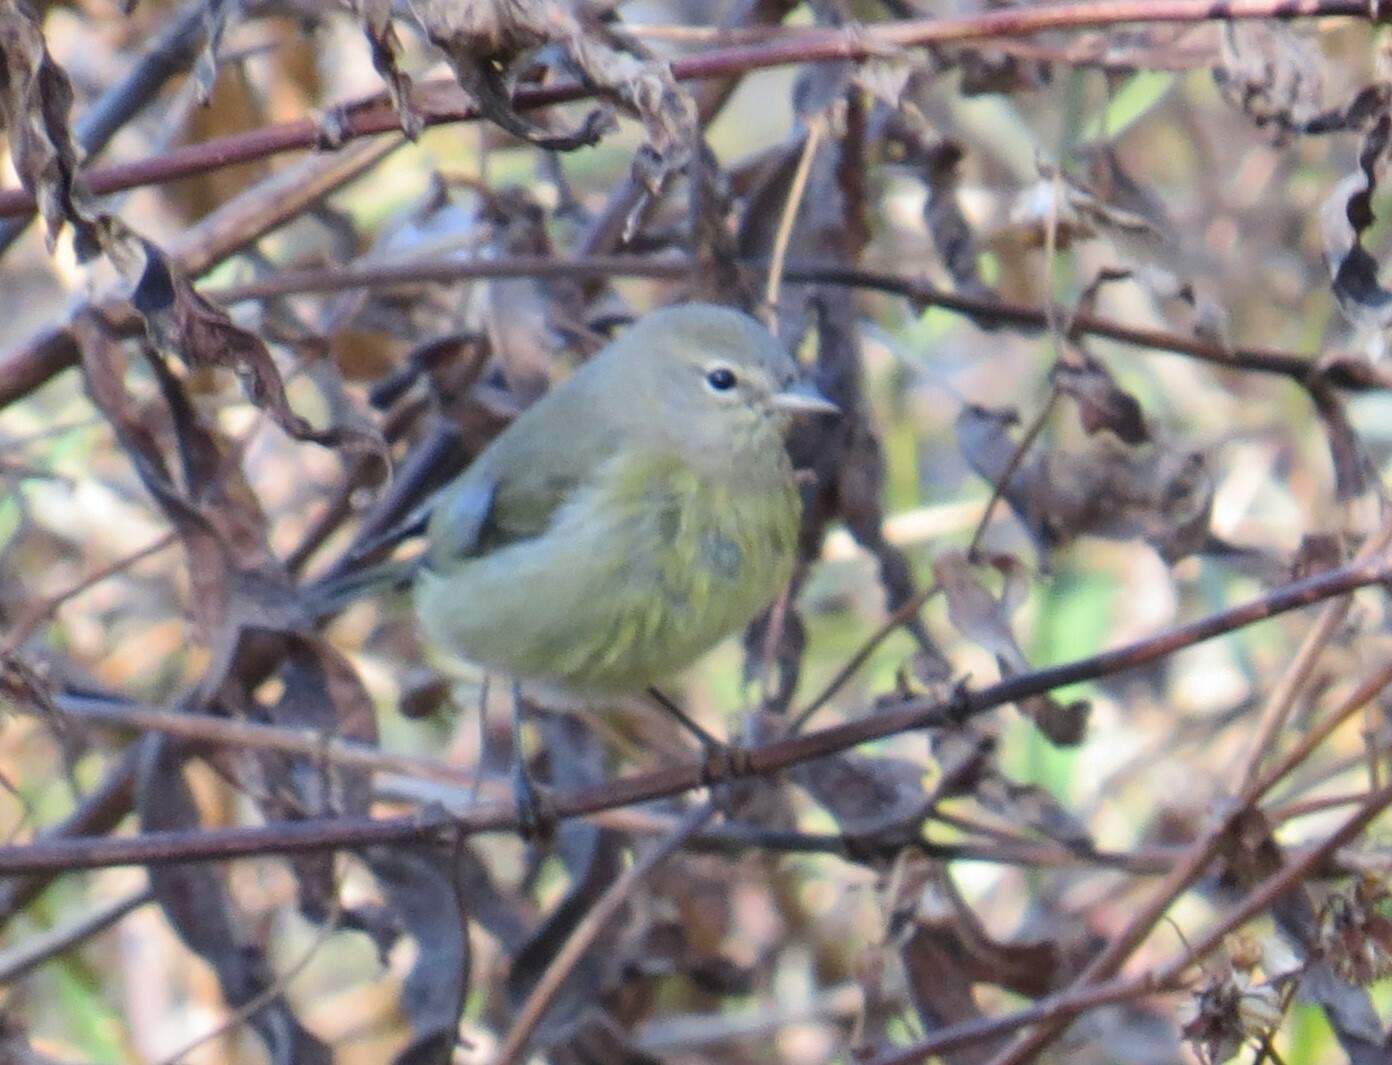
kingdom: Animalia
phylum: Chordata
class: Aves
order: Passeriformes
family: Parulidae
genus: Leiothlypis
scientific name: Leiothlypis celata
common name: Orange-crowned warbler
